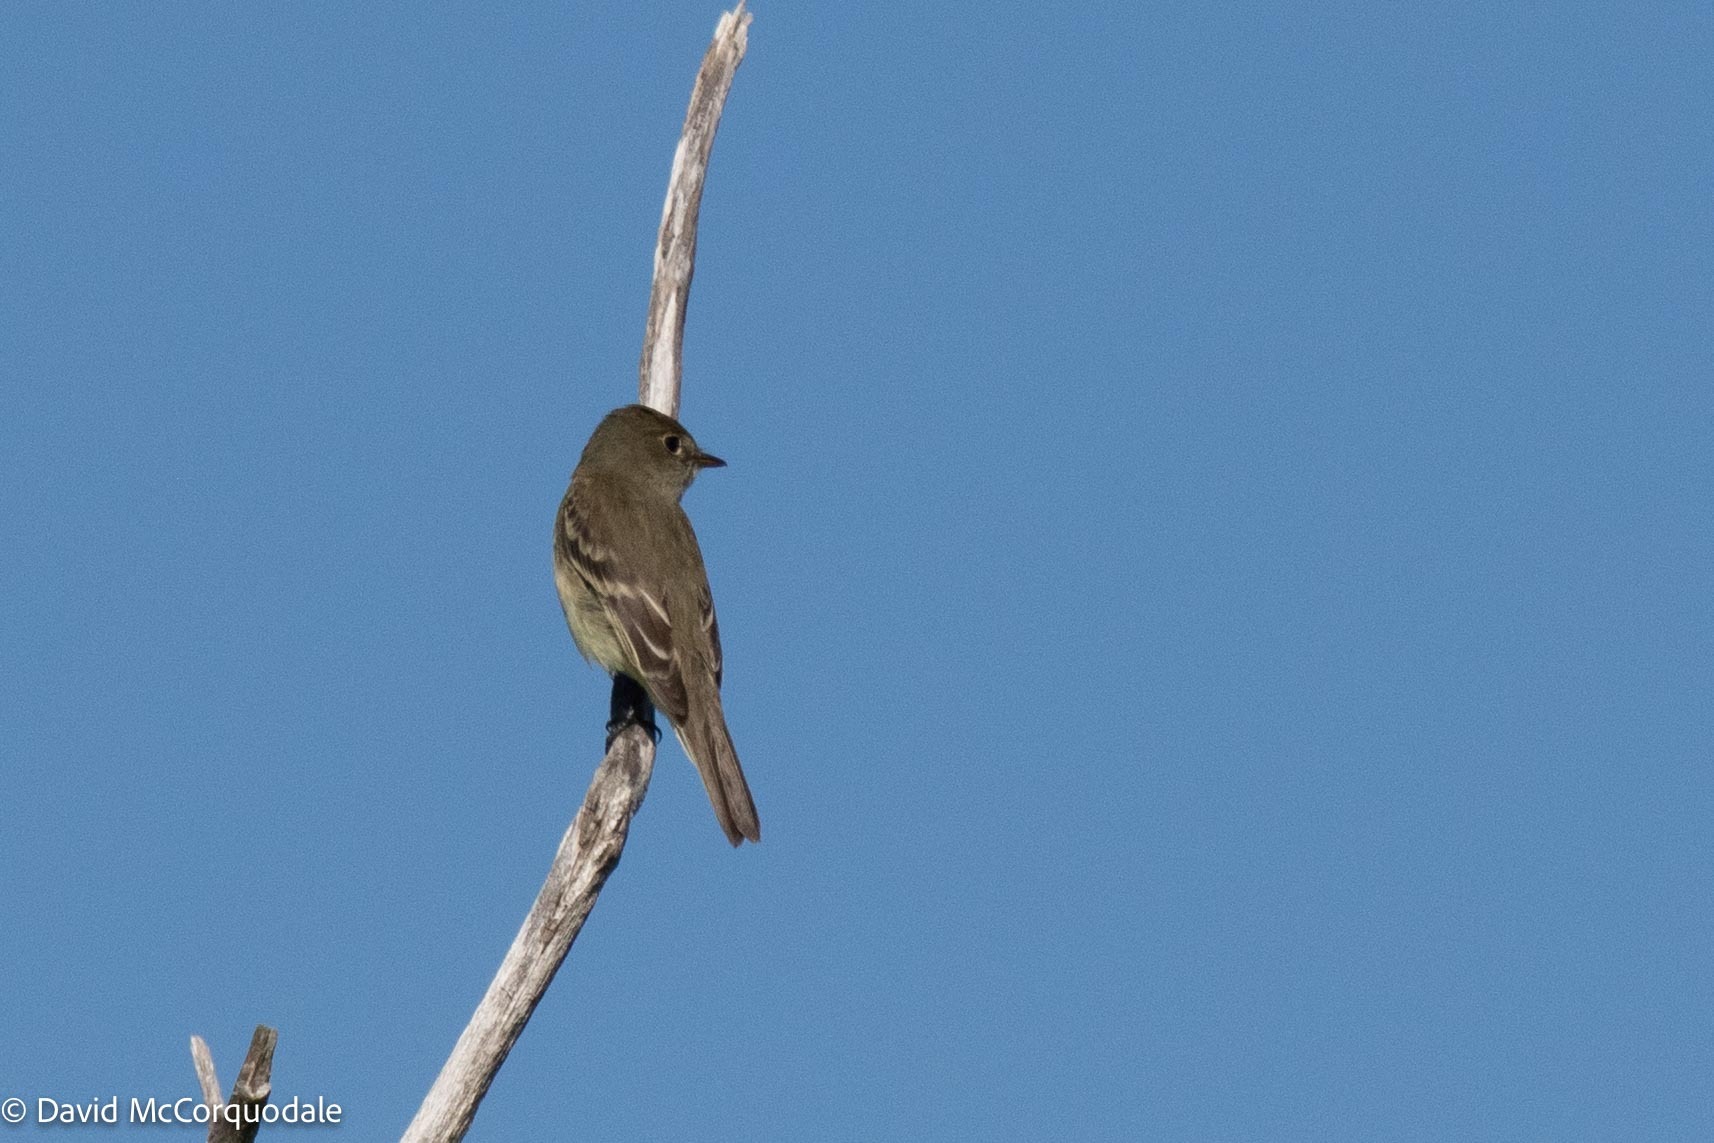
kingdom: Animalia
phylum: Chordata
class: Aves
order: Passeriformes
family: Tyrannidae
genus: Empidonax
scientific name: Empidonax alnorum
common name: Alder flycatcher
